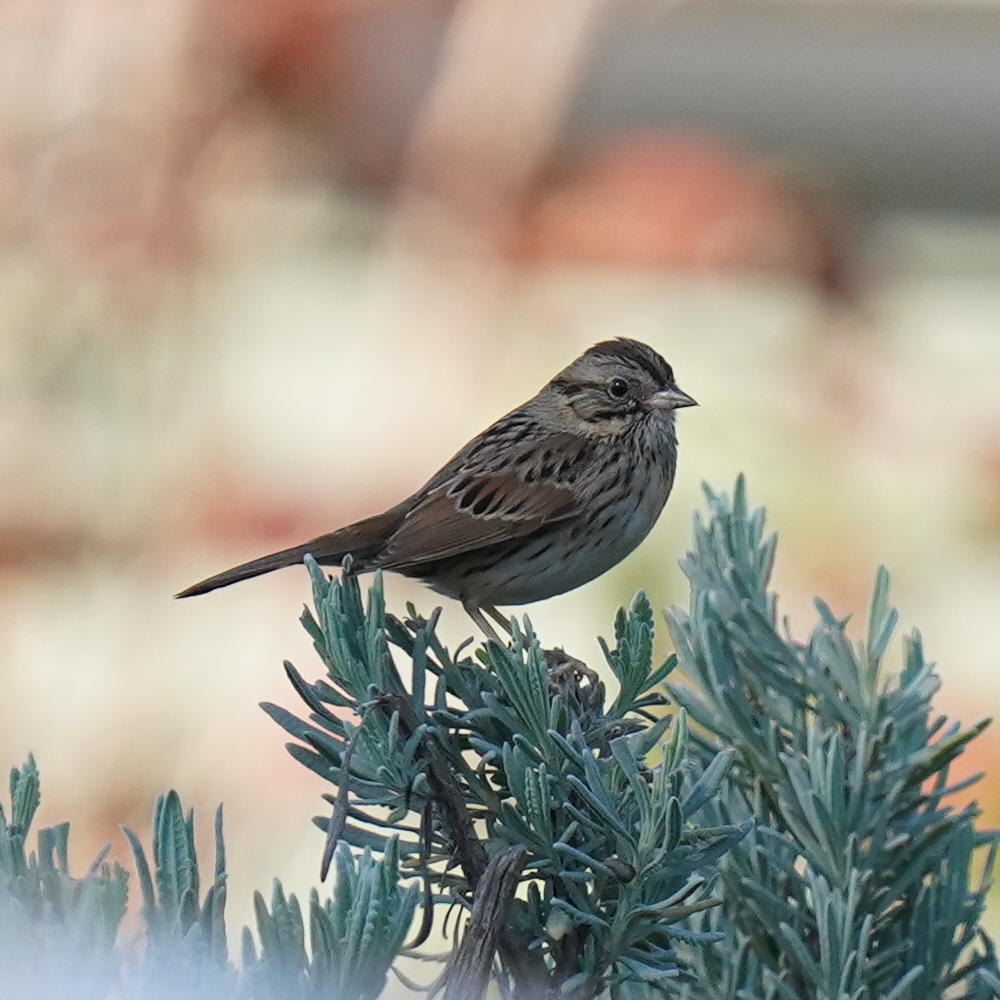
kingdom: Animalia
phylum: Chordata
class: Aves
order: Passeriformes
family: Passerellidae
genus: Melospiza
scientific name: Melospiza lincolnii
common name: Lincoln's sparrow
